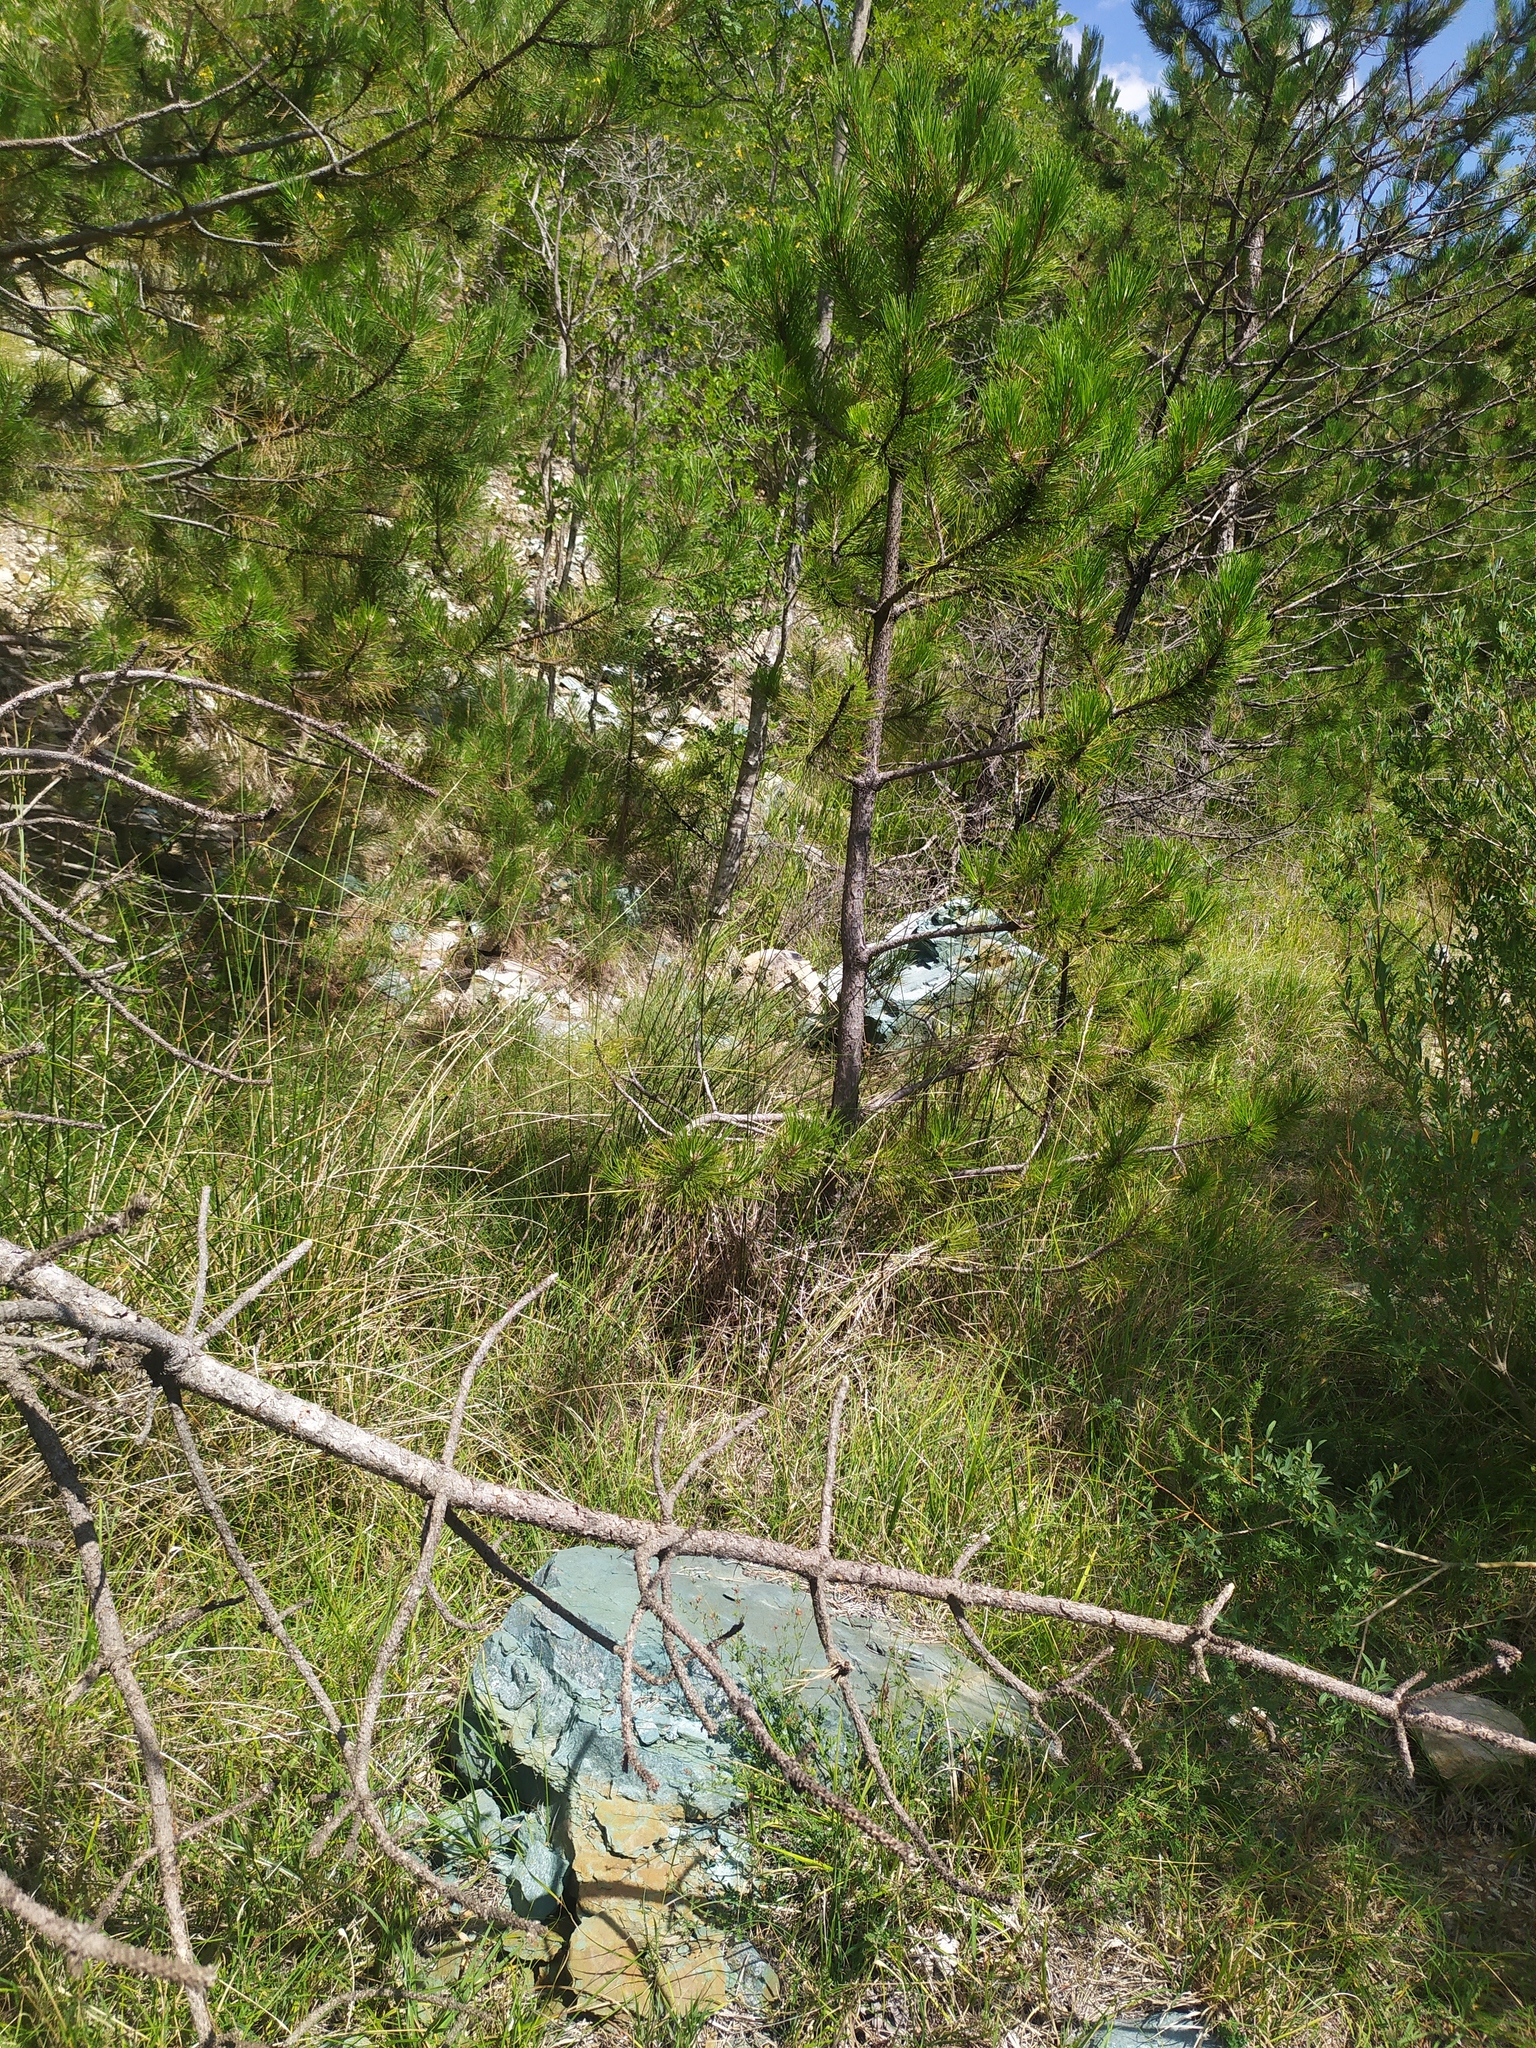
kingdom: Plantae
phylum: Tracheophyta
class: Pinopsida
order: Pinales
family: Pinaceae
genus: Pinus
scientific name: Pinus nigra
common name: Austrian pine
